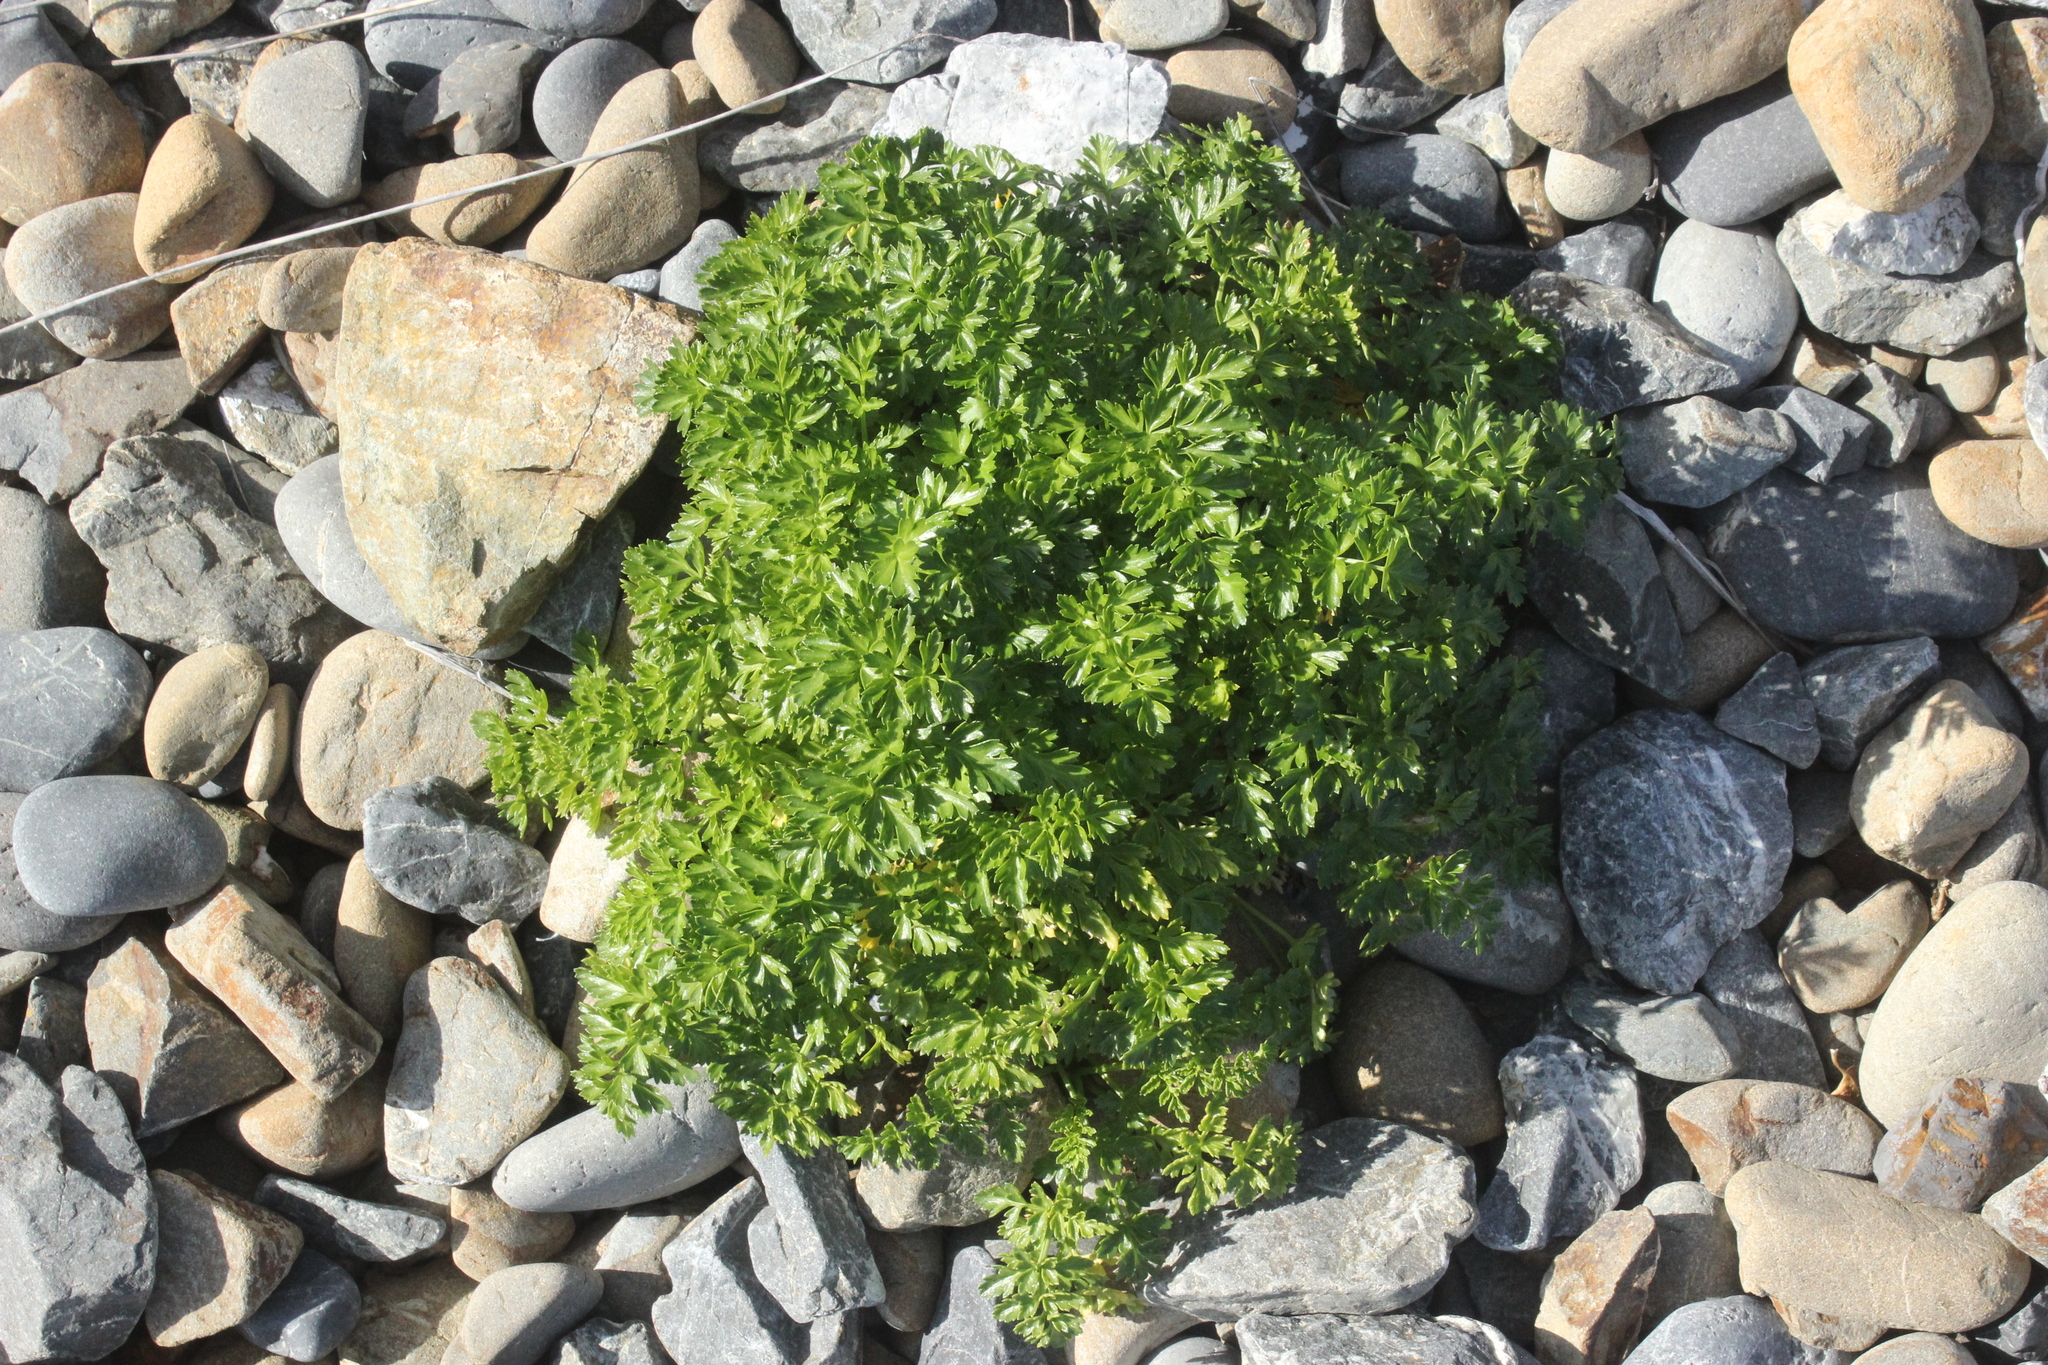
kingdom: Plantae
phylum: Tracheophyta
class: Magnoliopsida
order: Apiales
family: Apiaceae
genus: Angelica
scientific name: Angelica pachycarpa
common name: Portuguese angelica
